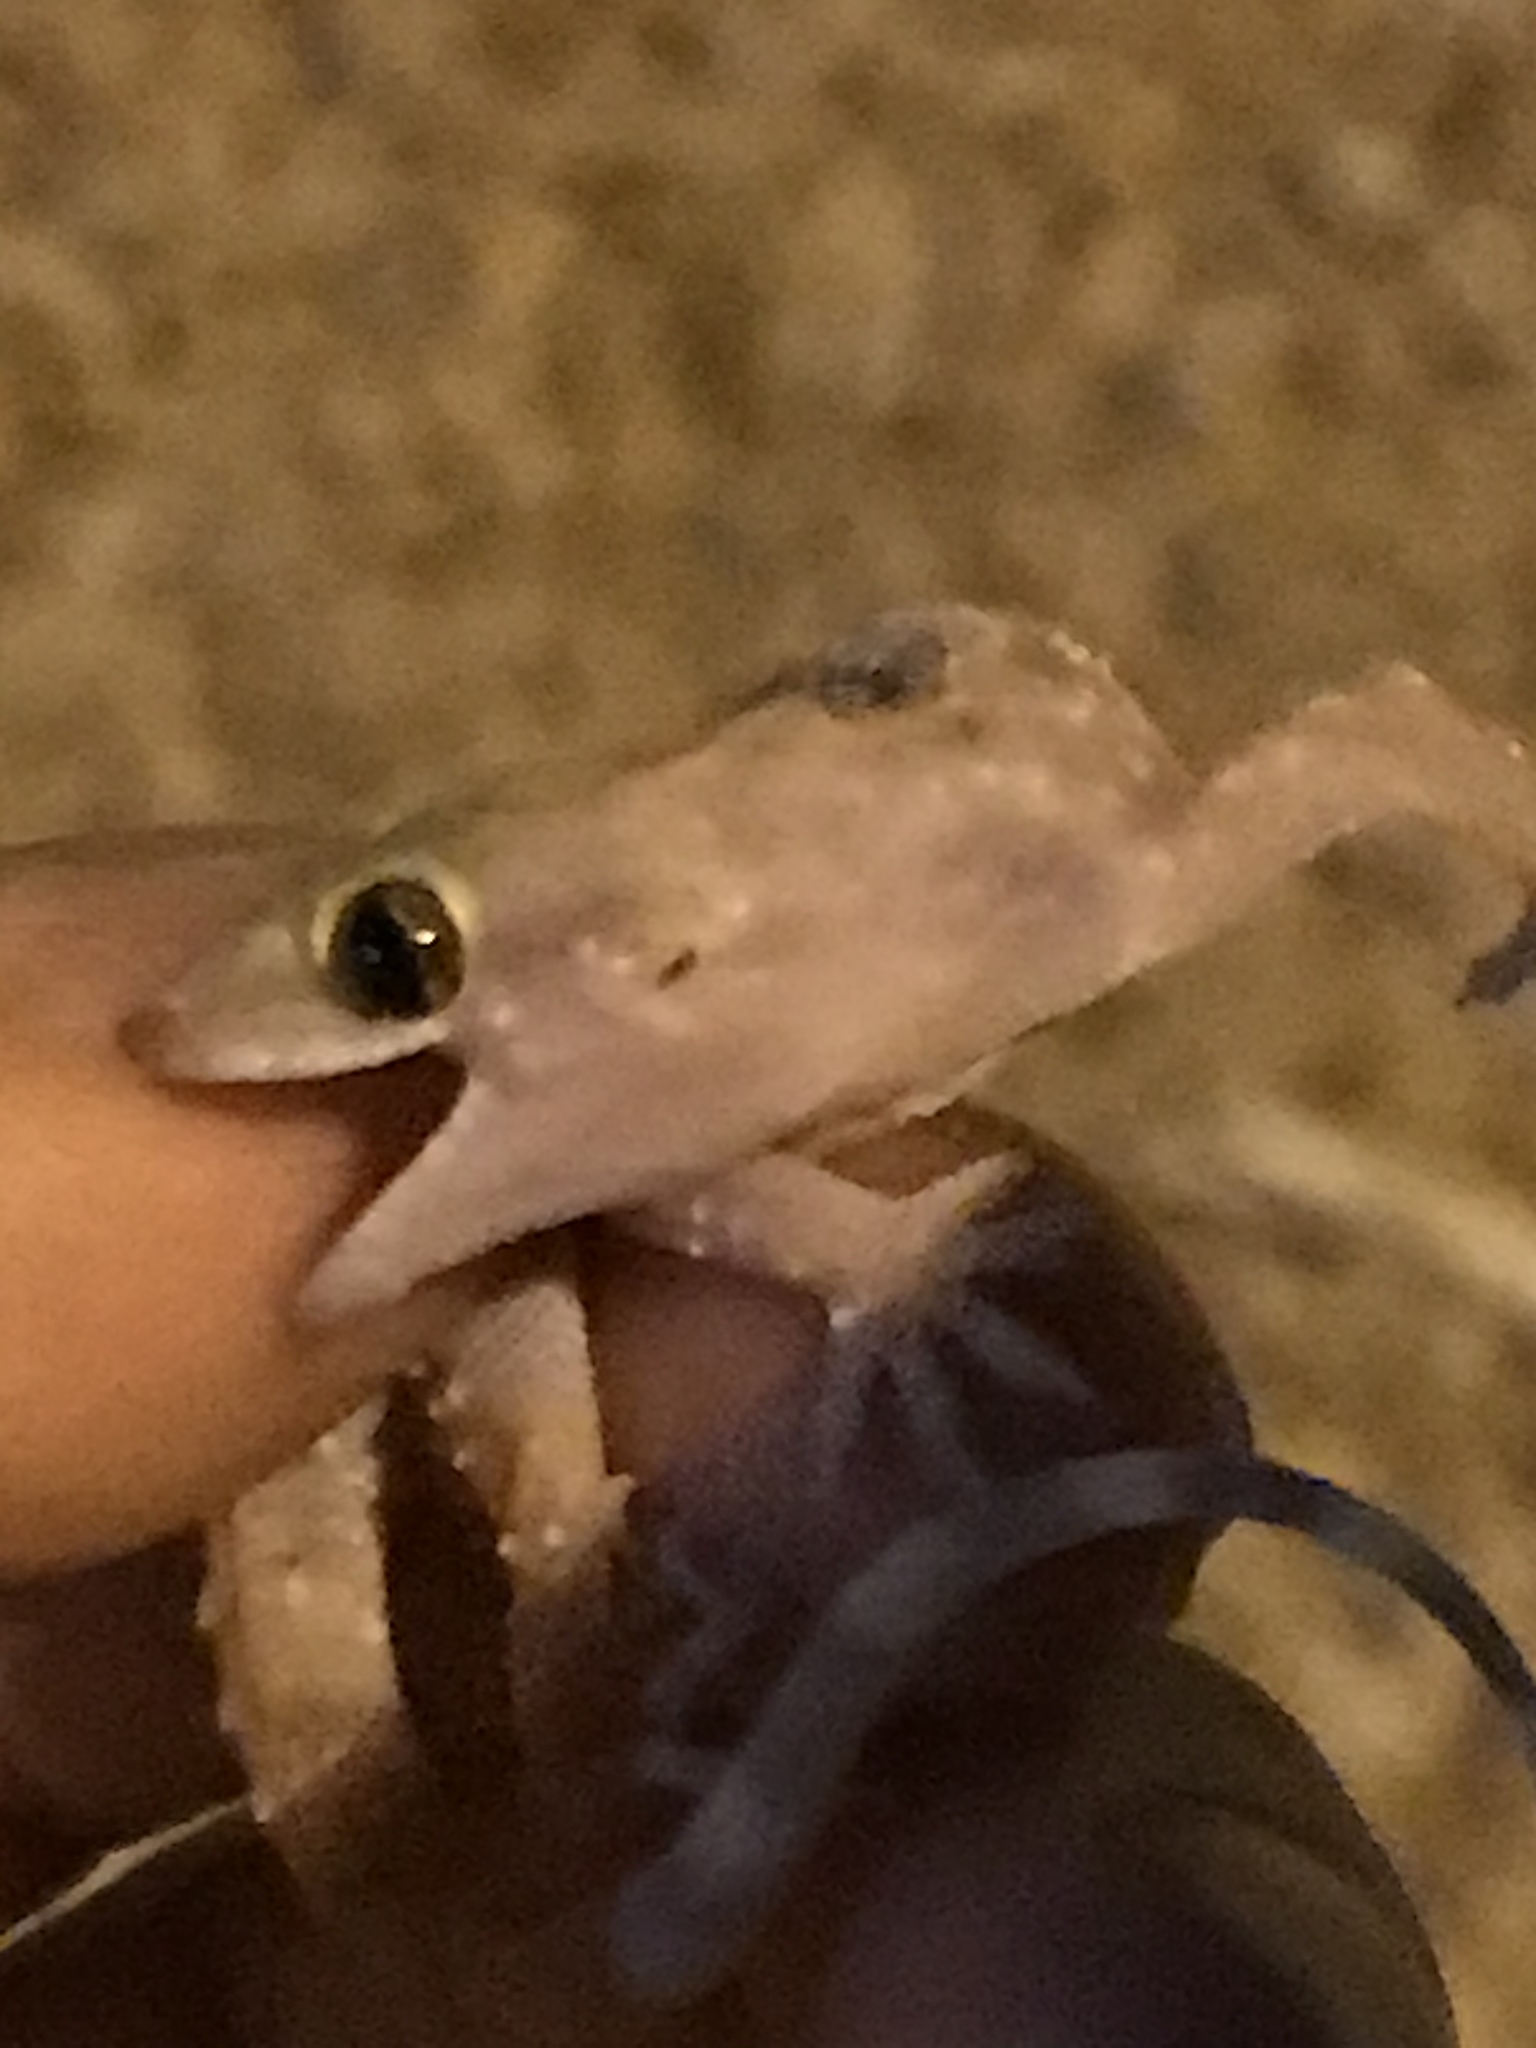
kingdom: Animalia
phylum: Chordata
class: Squamata
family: Gekkonidae
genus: Hemidactylus
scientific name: Hemidactylus turcicus
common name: Turkish gecko
